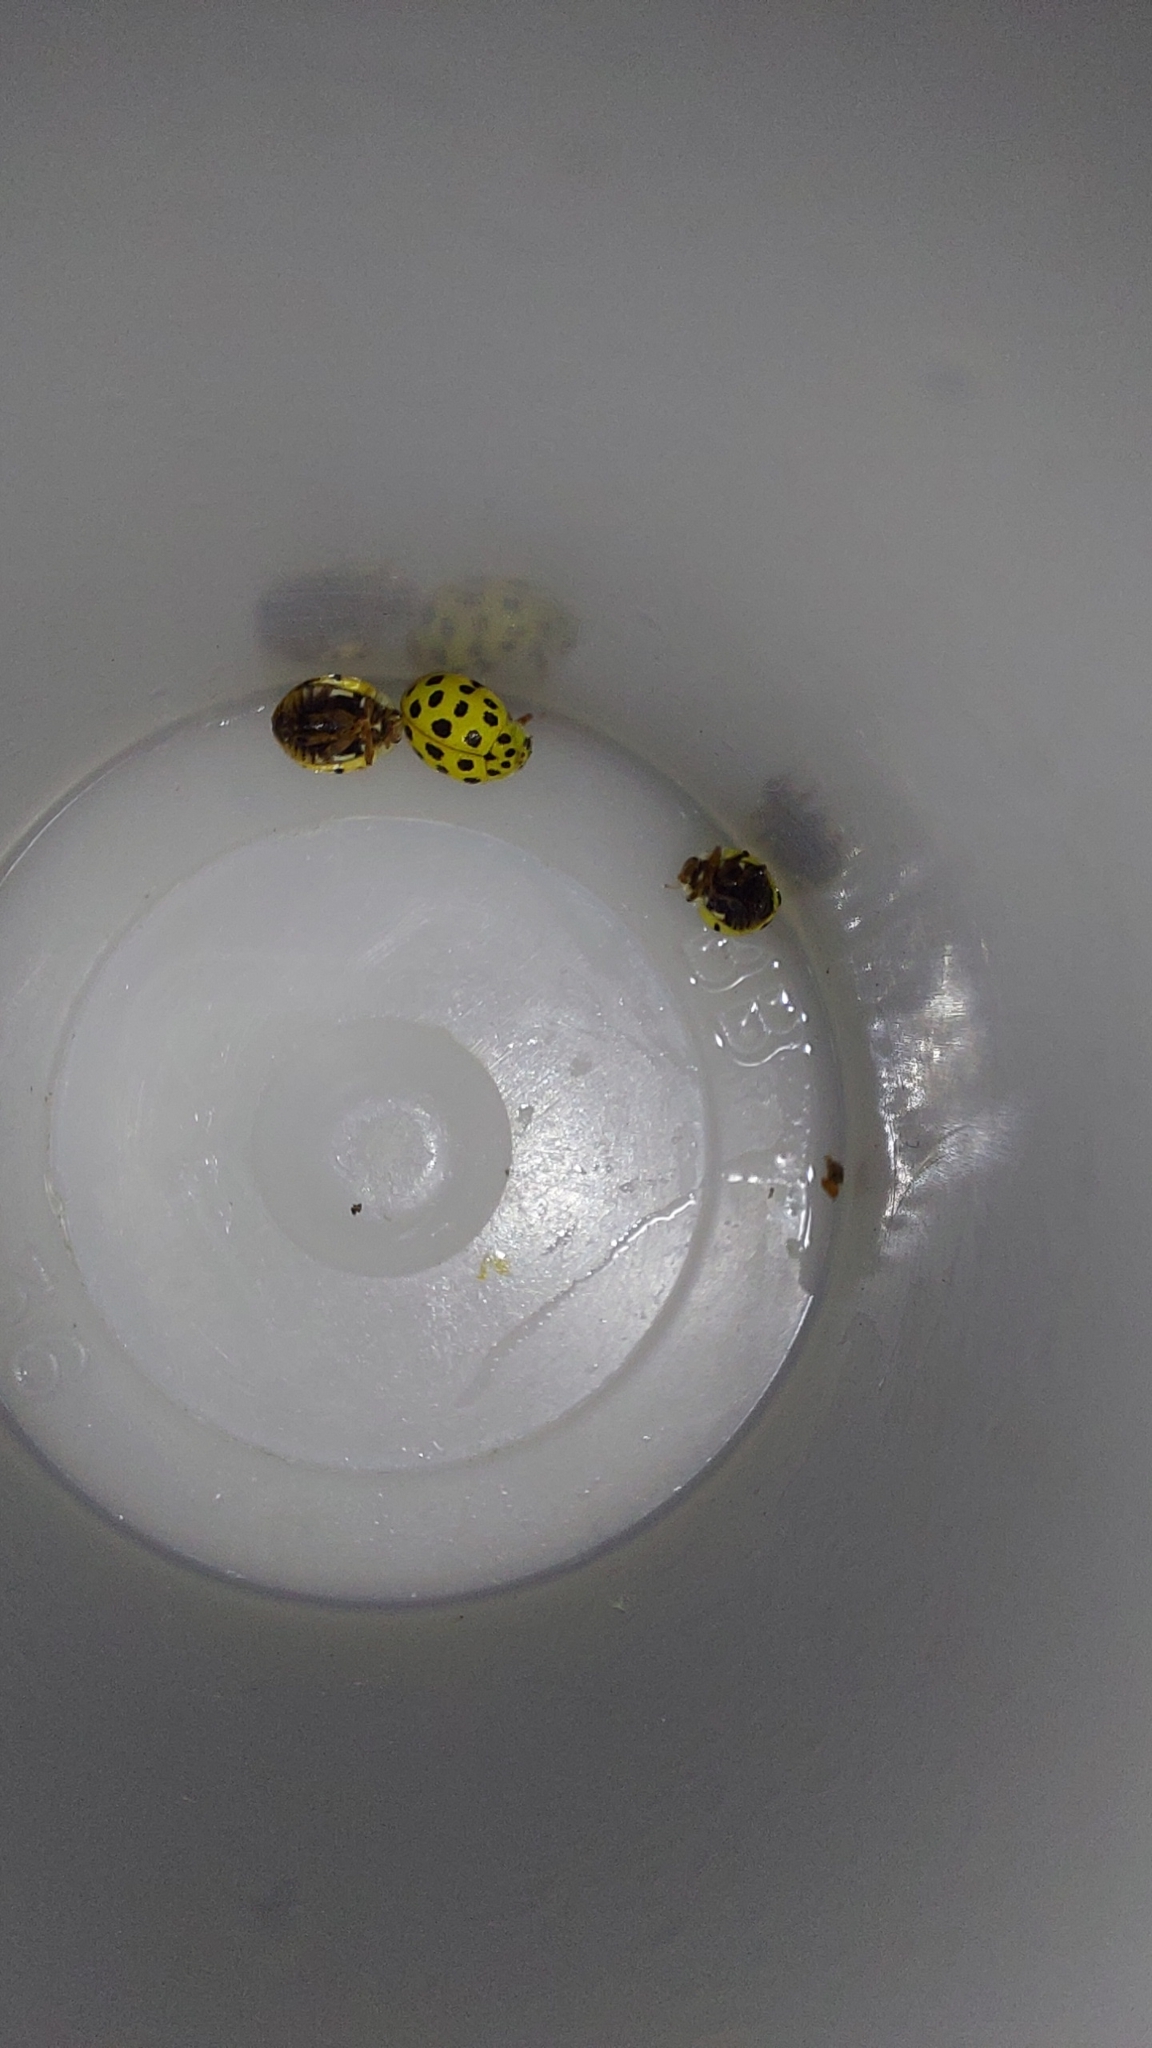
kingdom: Animalia
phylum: Arthropoda
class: Insecta
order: Coleoptera
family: Coccinellidae
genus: Psyllobora
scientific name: Psyllobora vigintiduopunctata
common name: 22-spot ladybird
